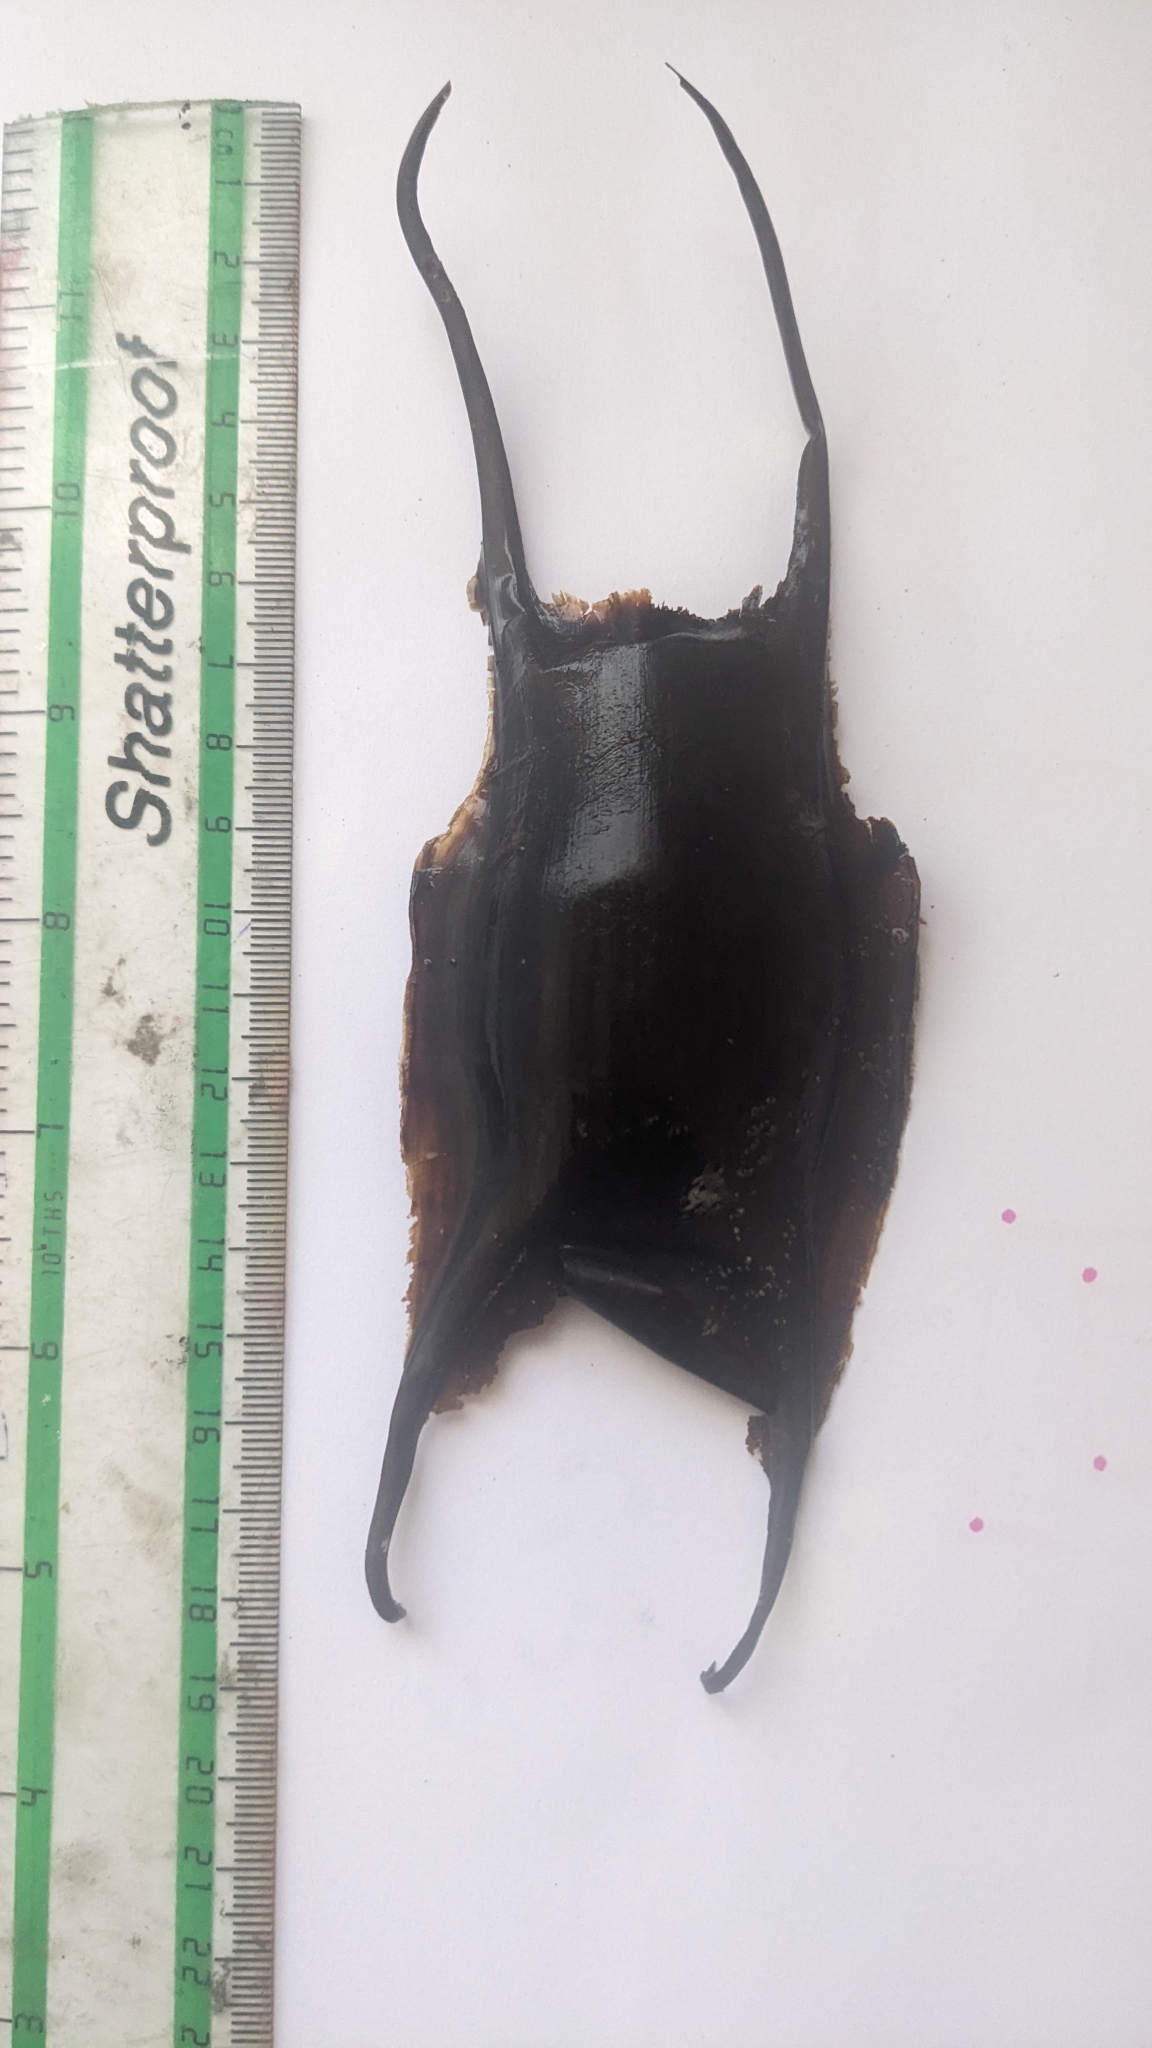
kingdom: Animalia
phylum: Chordata
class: Elasmobranchii
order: Rajiformes
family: Rajidae
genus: Raja
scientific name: Raja brachyura
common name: Blonde ray
